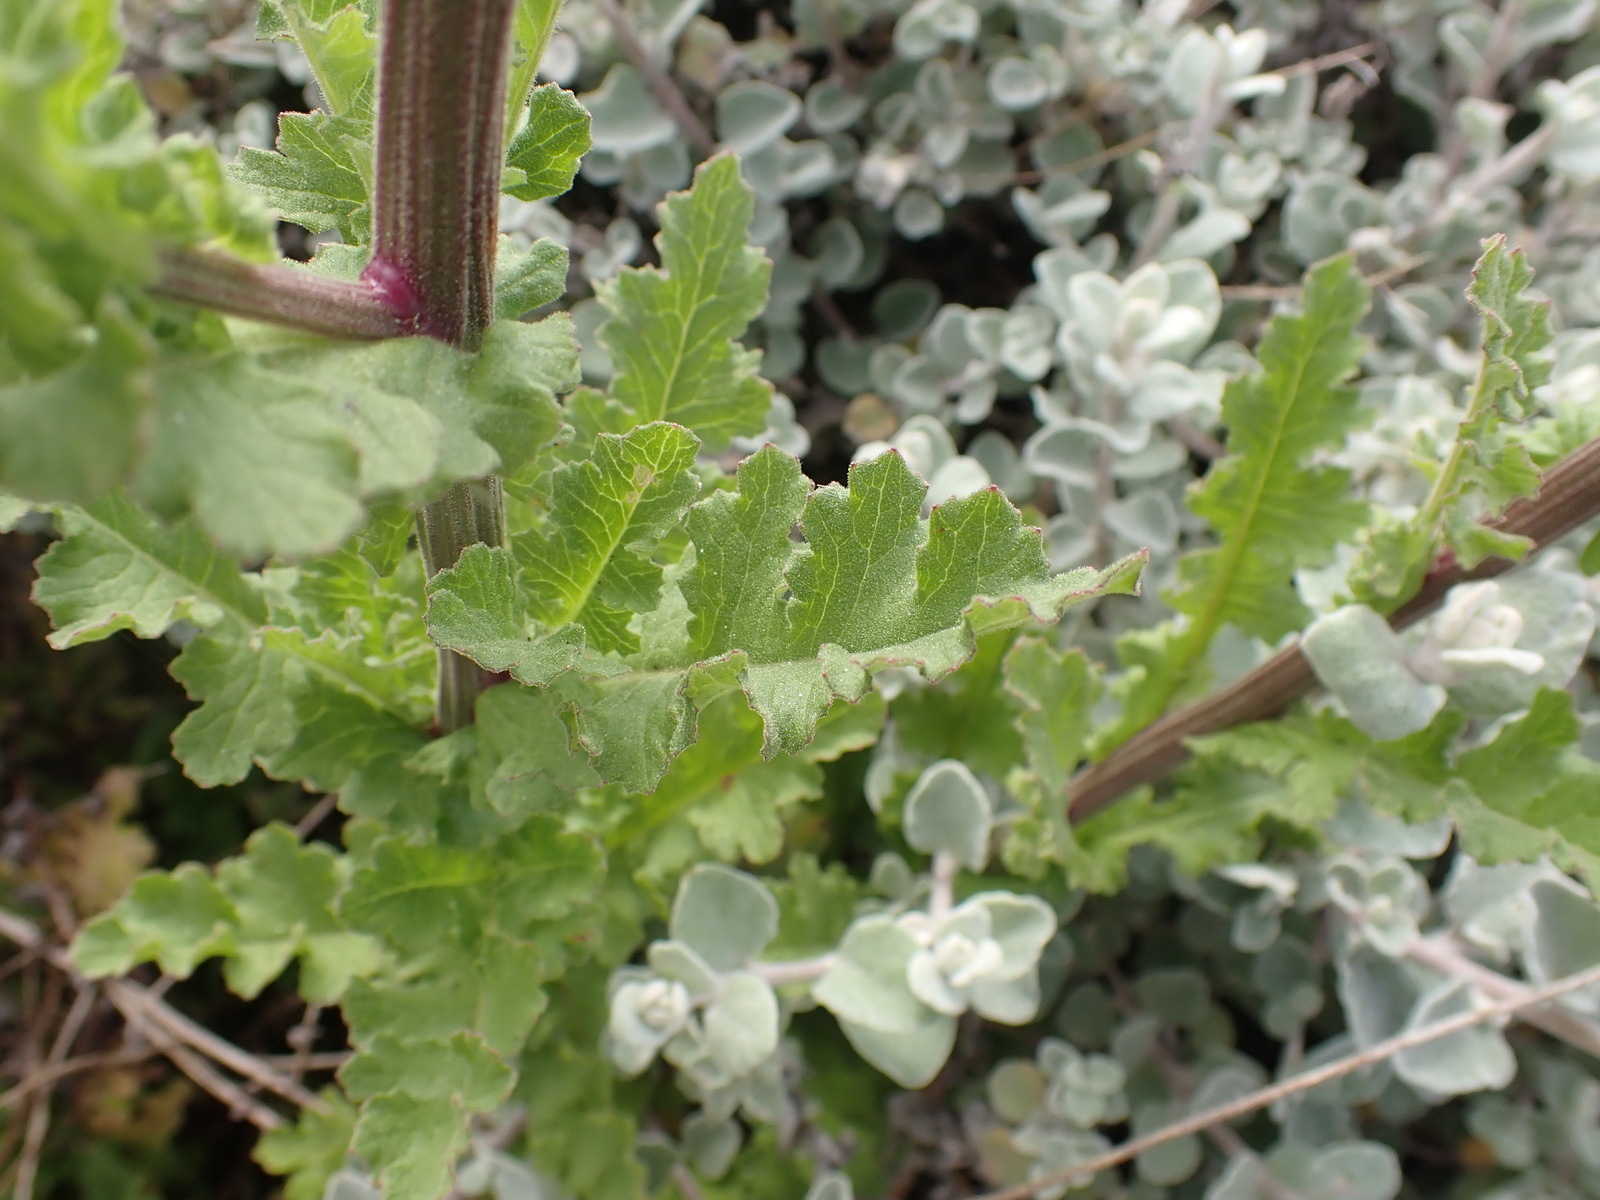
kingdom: Plantae
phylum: Tracheophyta
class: Magnoliopsida
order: Asterales
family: Asteraceae
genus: Senecio
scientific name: Senecio purpureus
